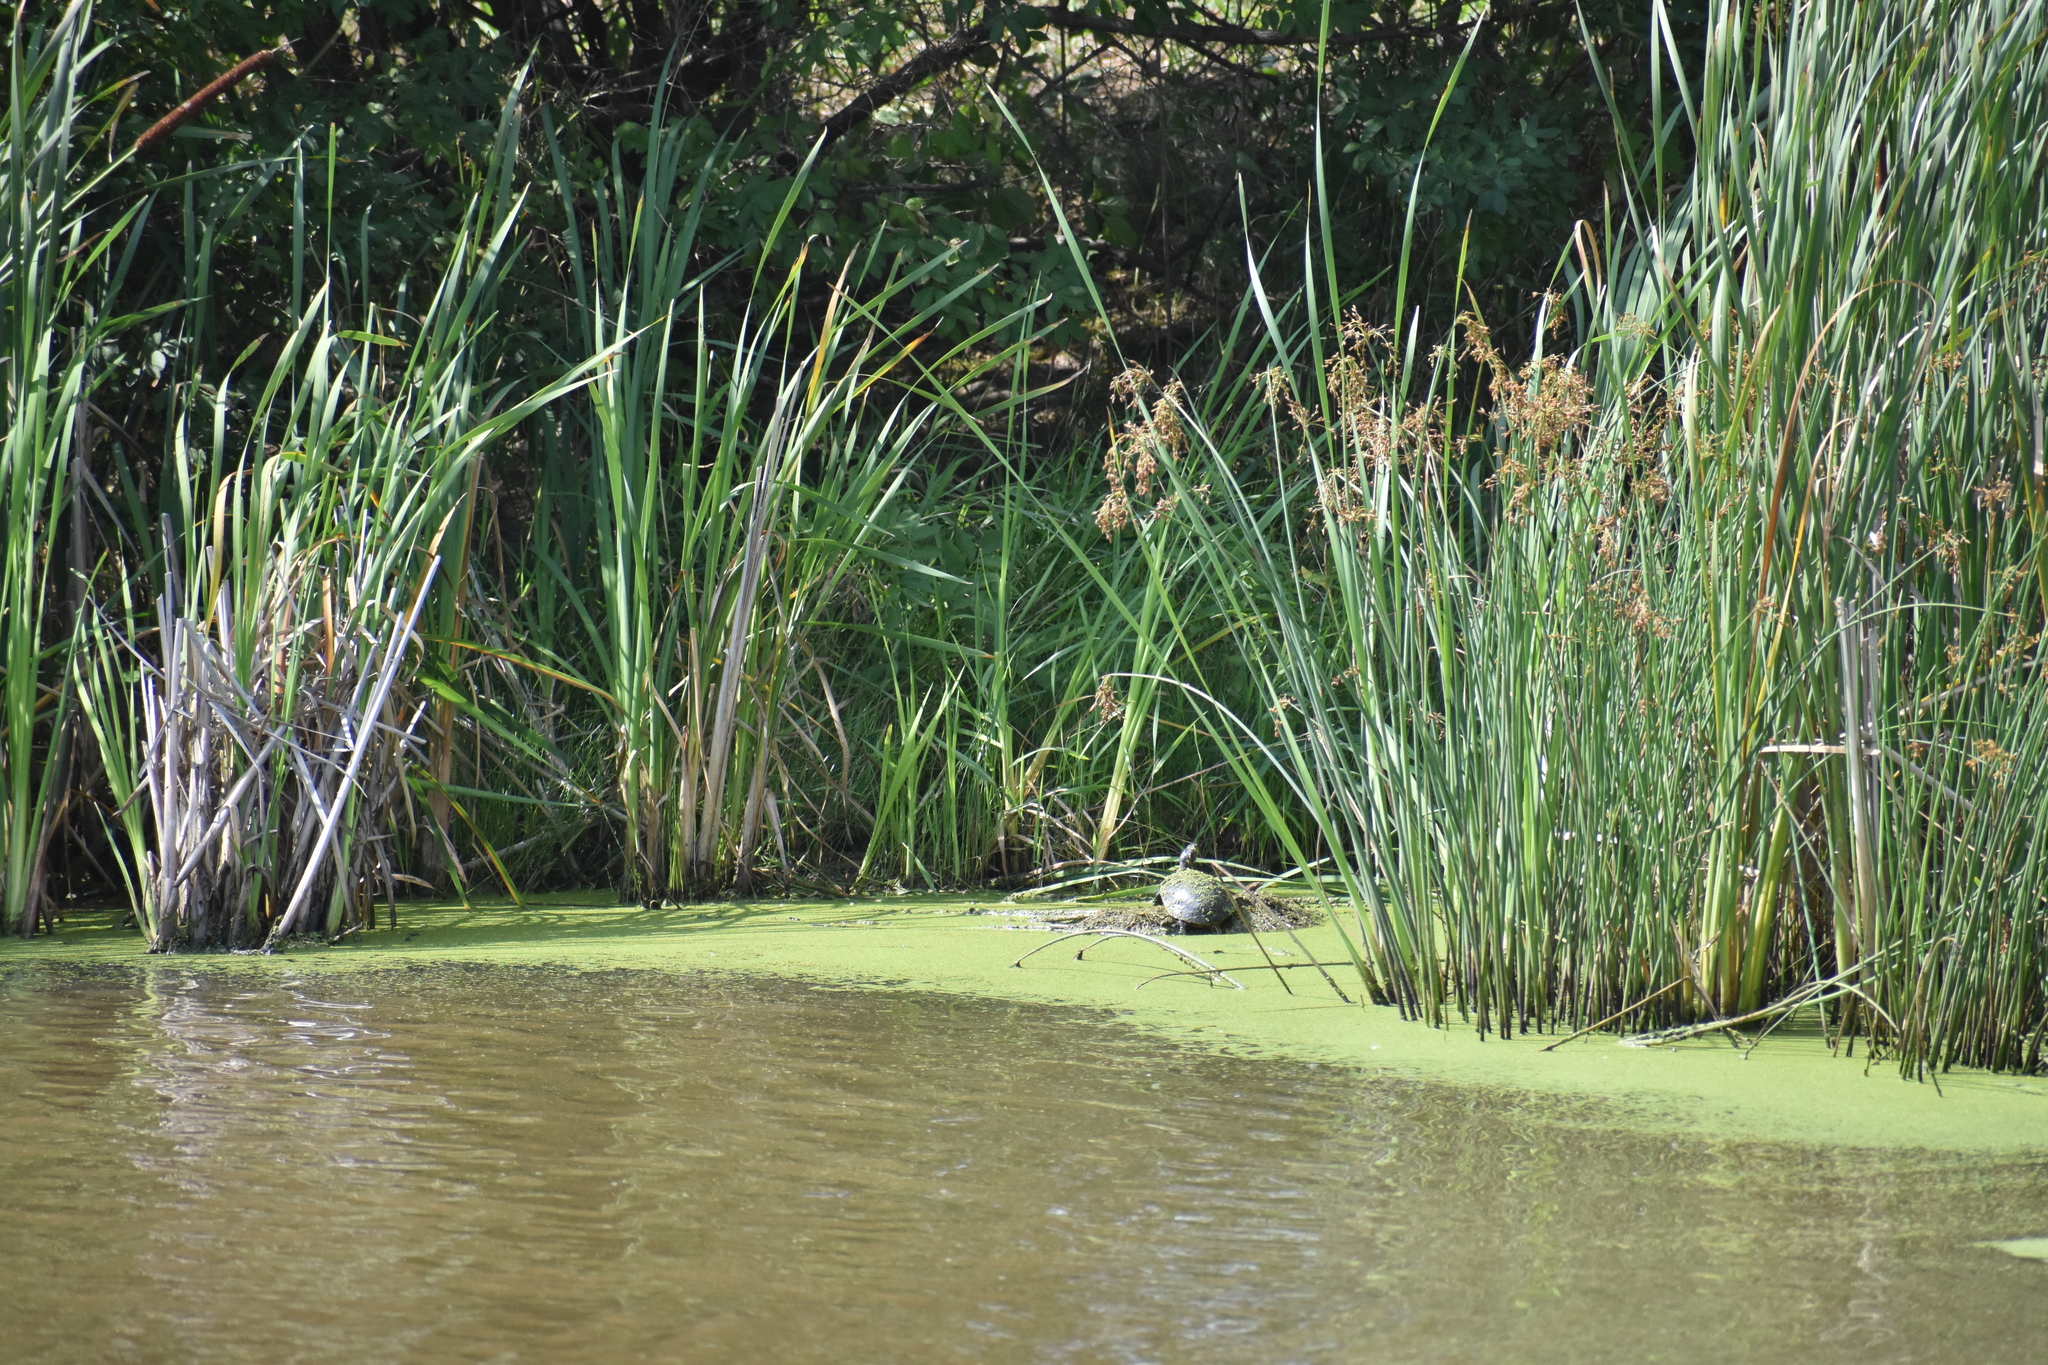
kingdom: Animalia
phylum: Chordata
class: Testudines
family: Emydidae
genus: Chrysemys
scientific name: Chrysemys picta
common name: Painted turtle
